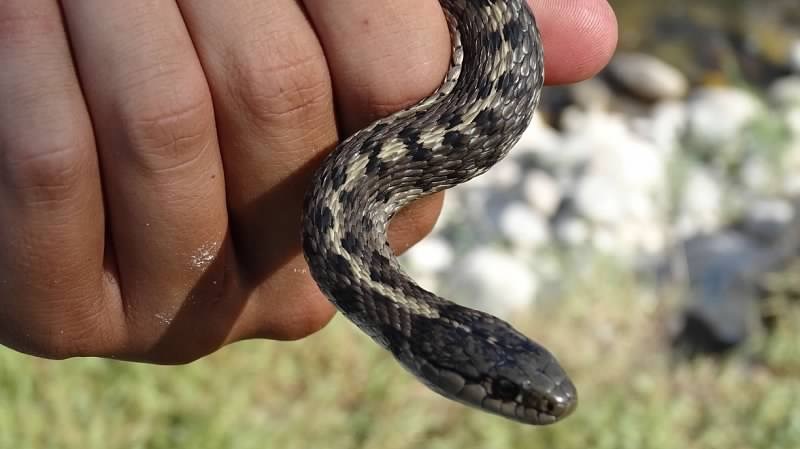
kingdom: Animalia
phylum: Chordata
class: Squamata
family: Colubridae
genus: Thamnophis
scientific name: Thamnophis elegans
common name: Western terrestrial garter snake
